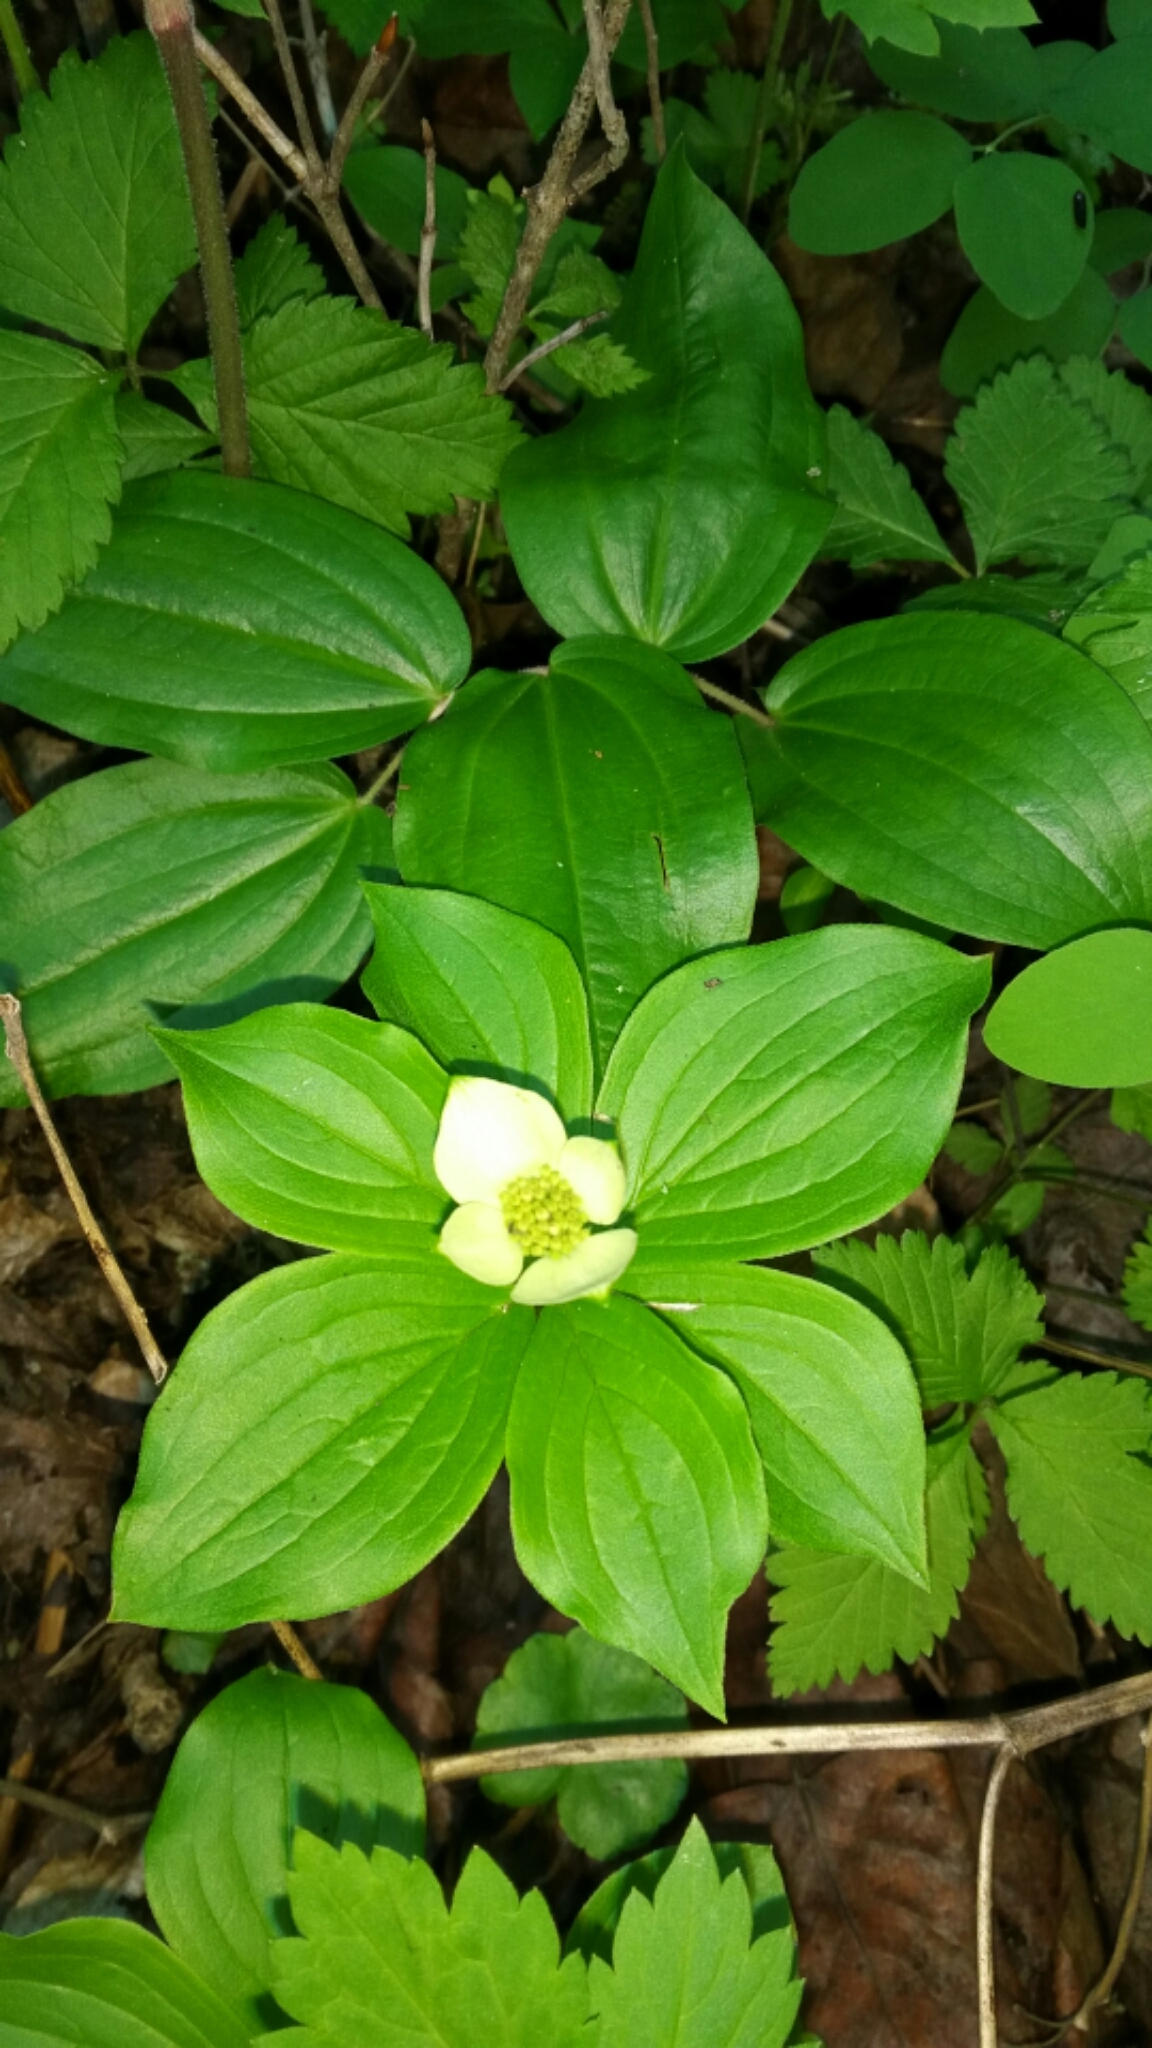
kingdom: Plantae
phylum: Tracheophyta
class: Magnoliopsida
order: Cornales
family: Cornaceae
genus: Cornus
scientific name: Cornus canadensis
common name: Creeping dogwood
